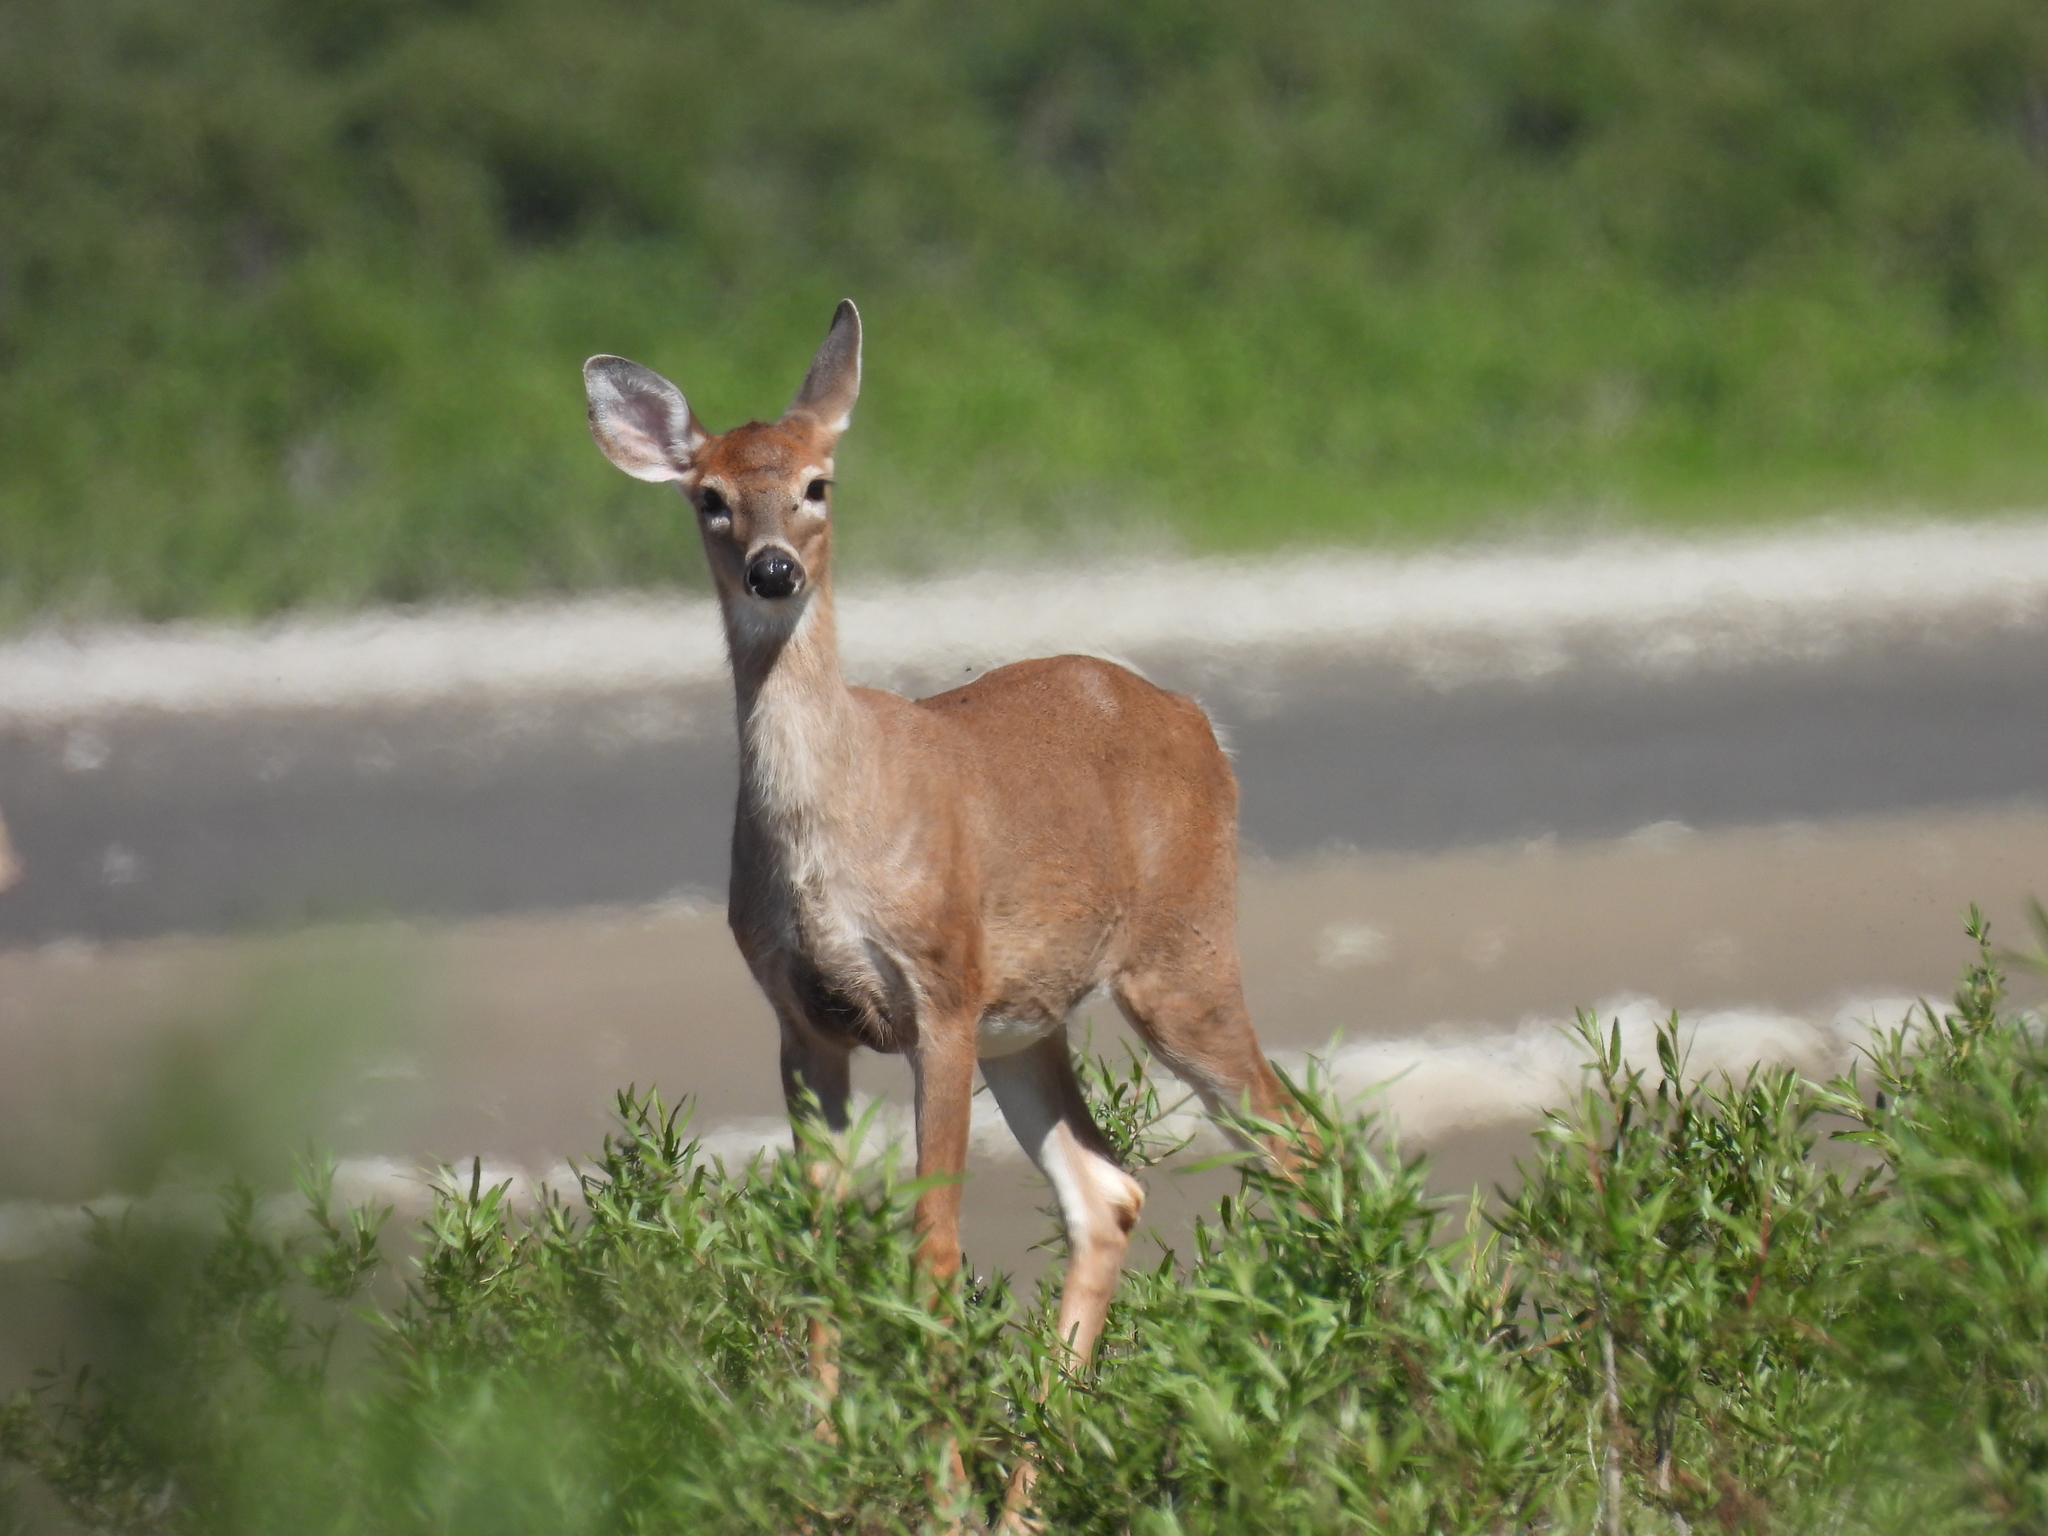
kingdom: Animalia
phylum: Chordata
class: Mammalia
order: Artiodactyla
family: Cervidae
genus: Odocoileus
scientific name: Odocoileus virginianus
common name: White-tailed deer
